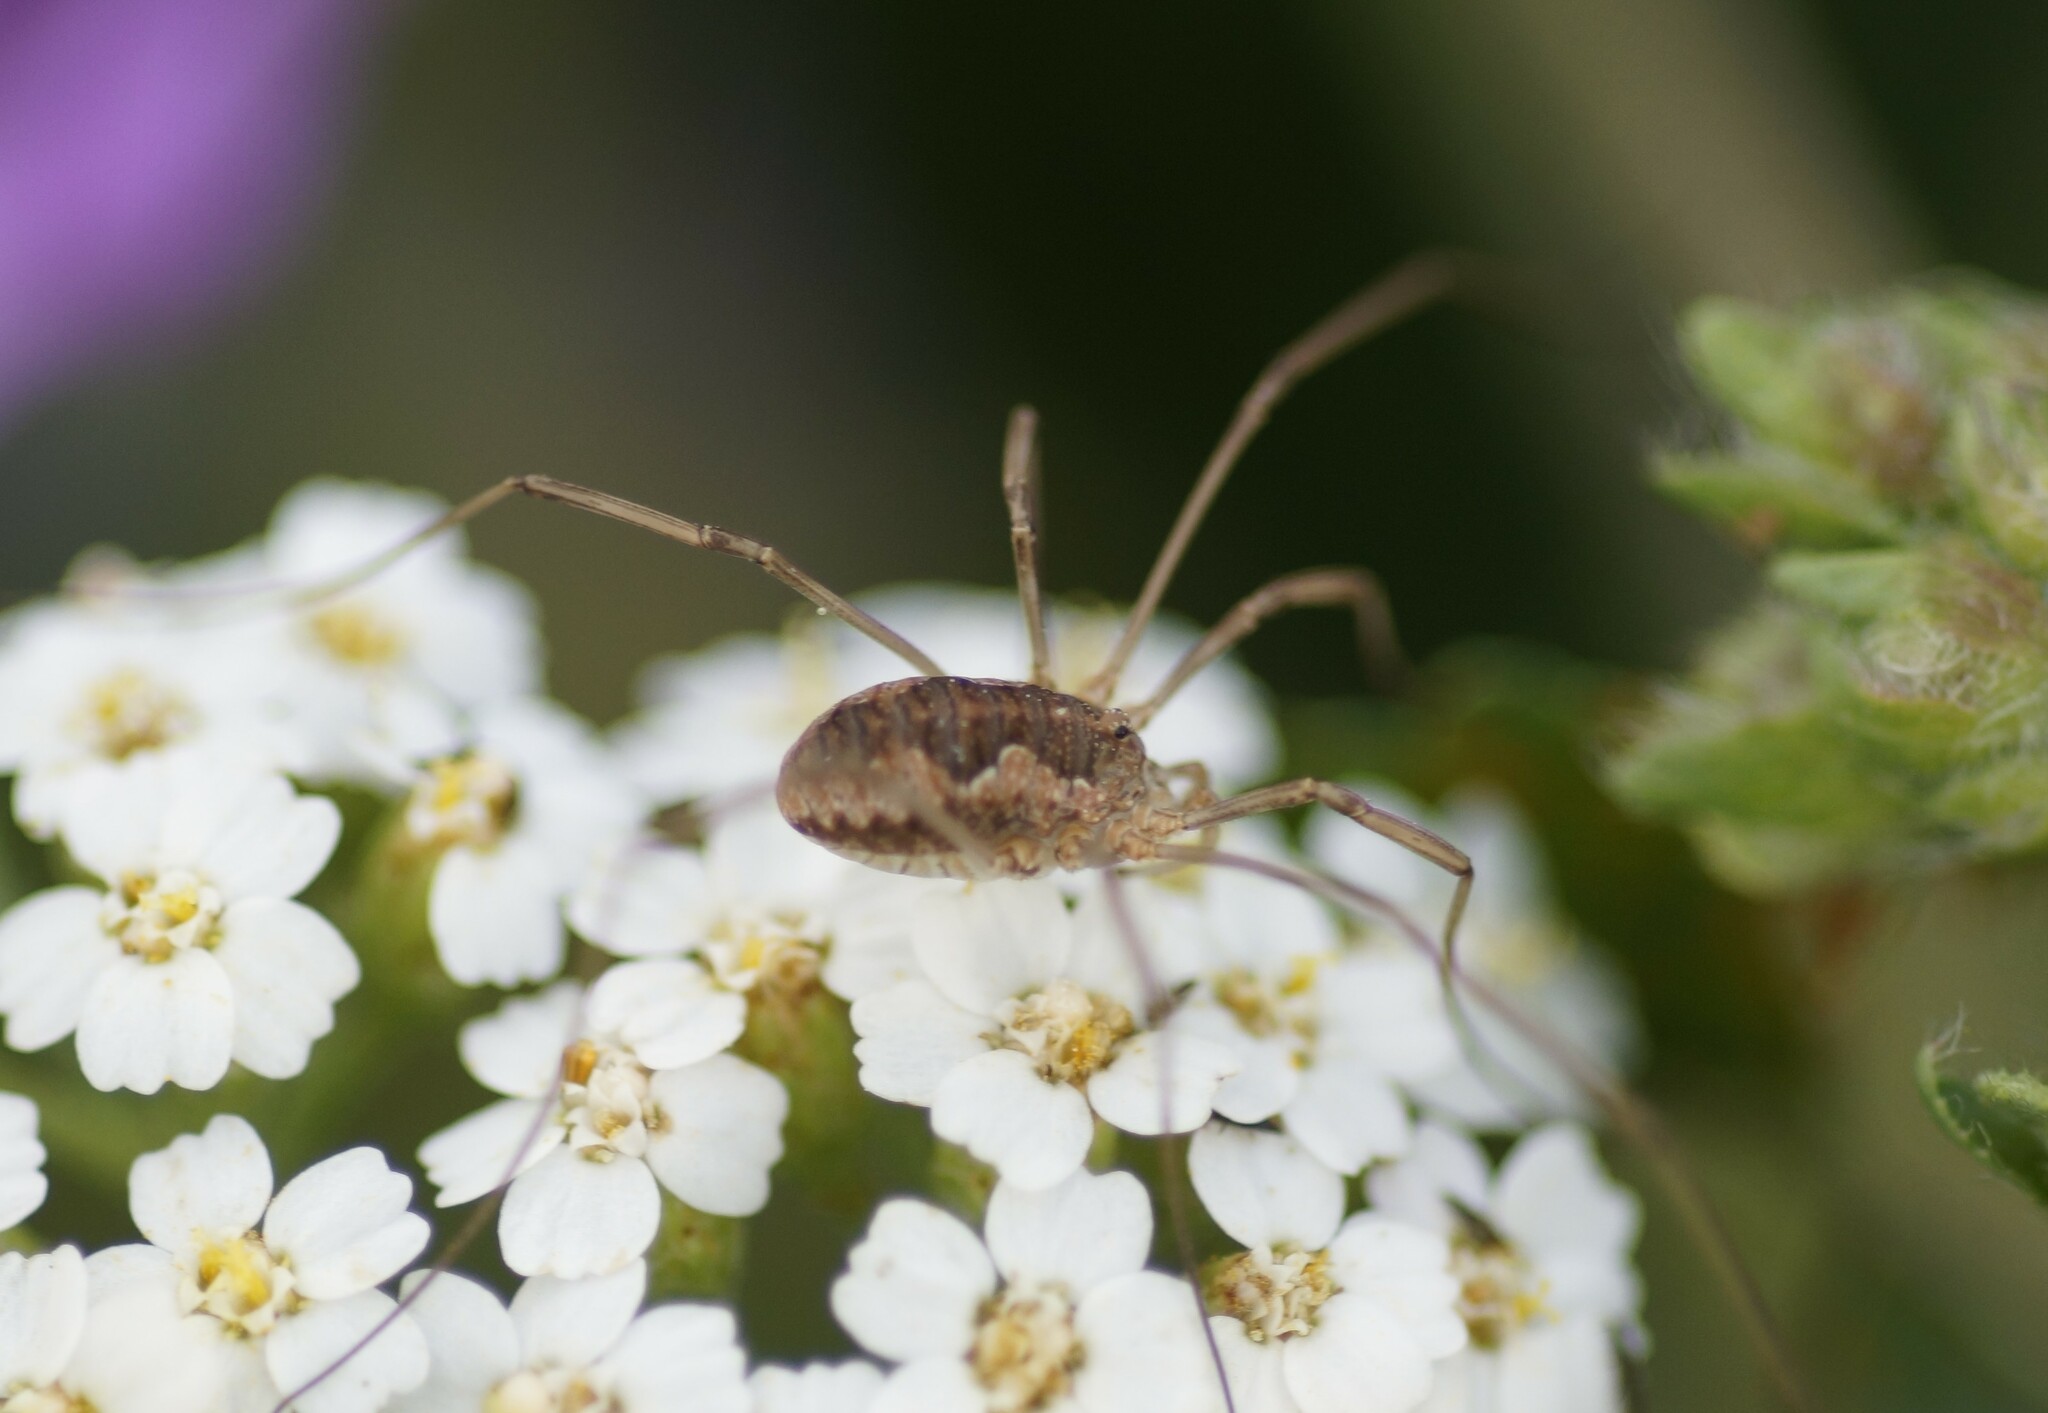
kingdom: Animalia
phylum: Arthropoda
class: Arachnida
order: Opiliones
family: Phalangiidae
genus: Phalangium
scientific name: Phalangium opilio
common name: Daddy longleg
